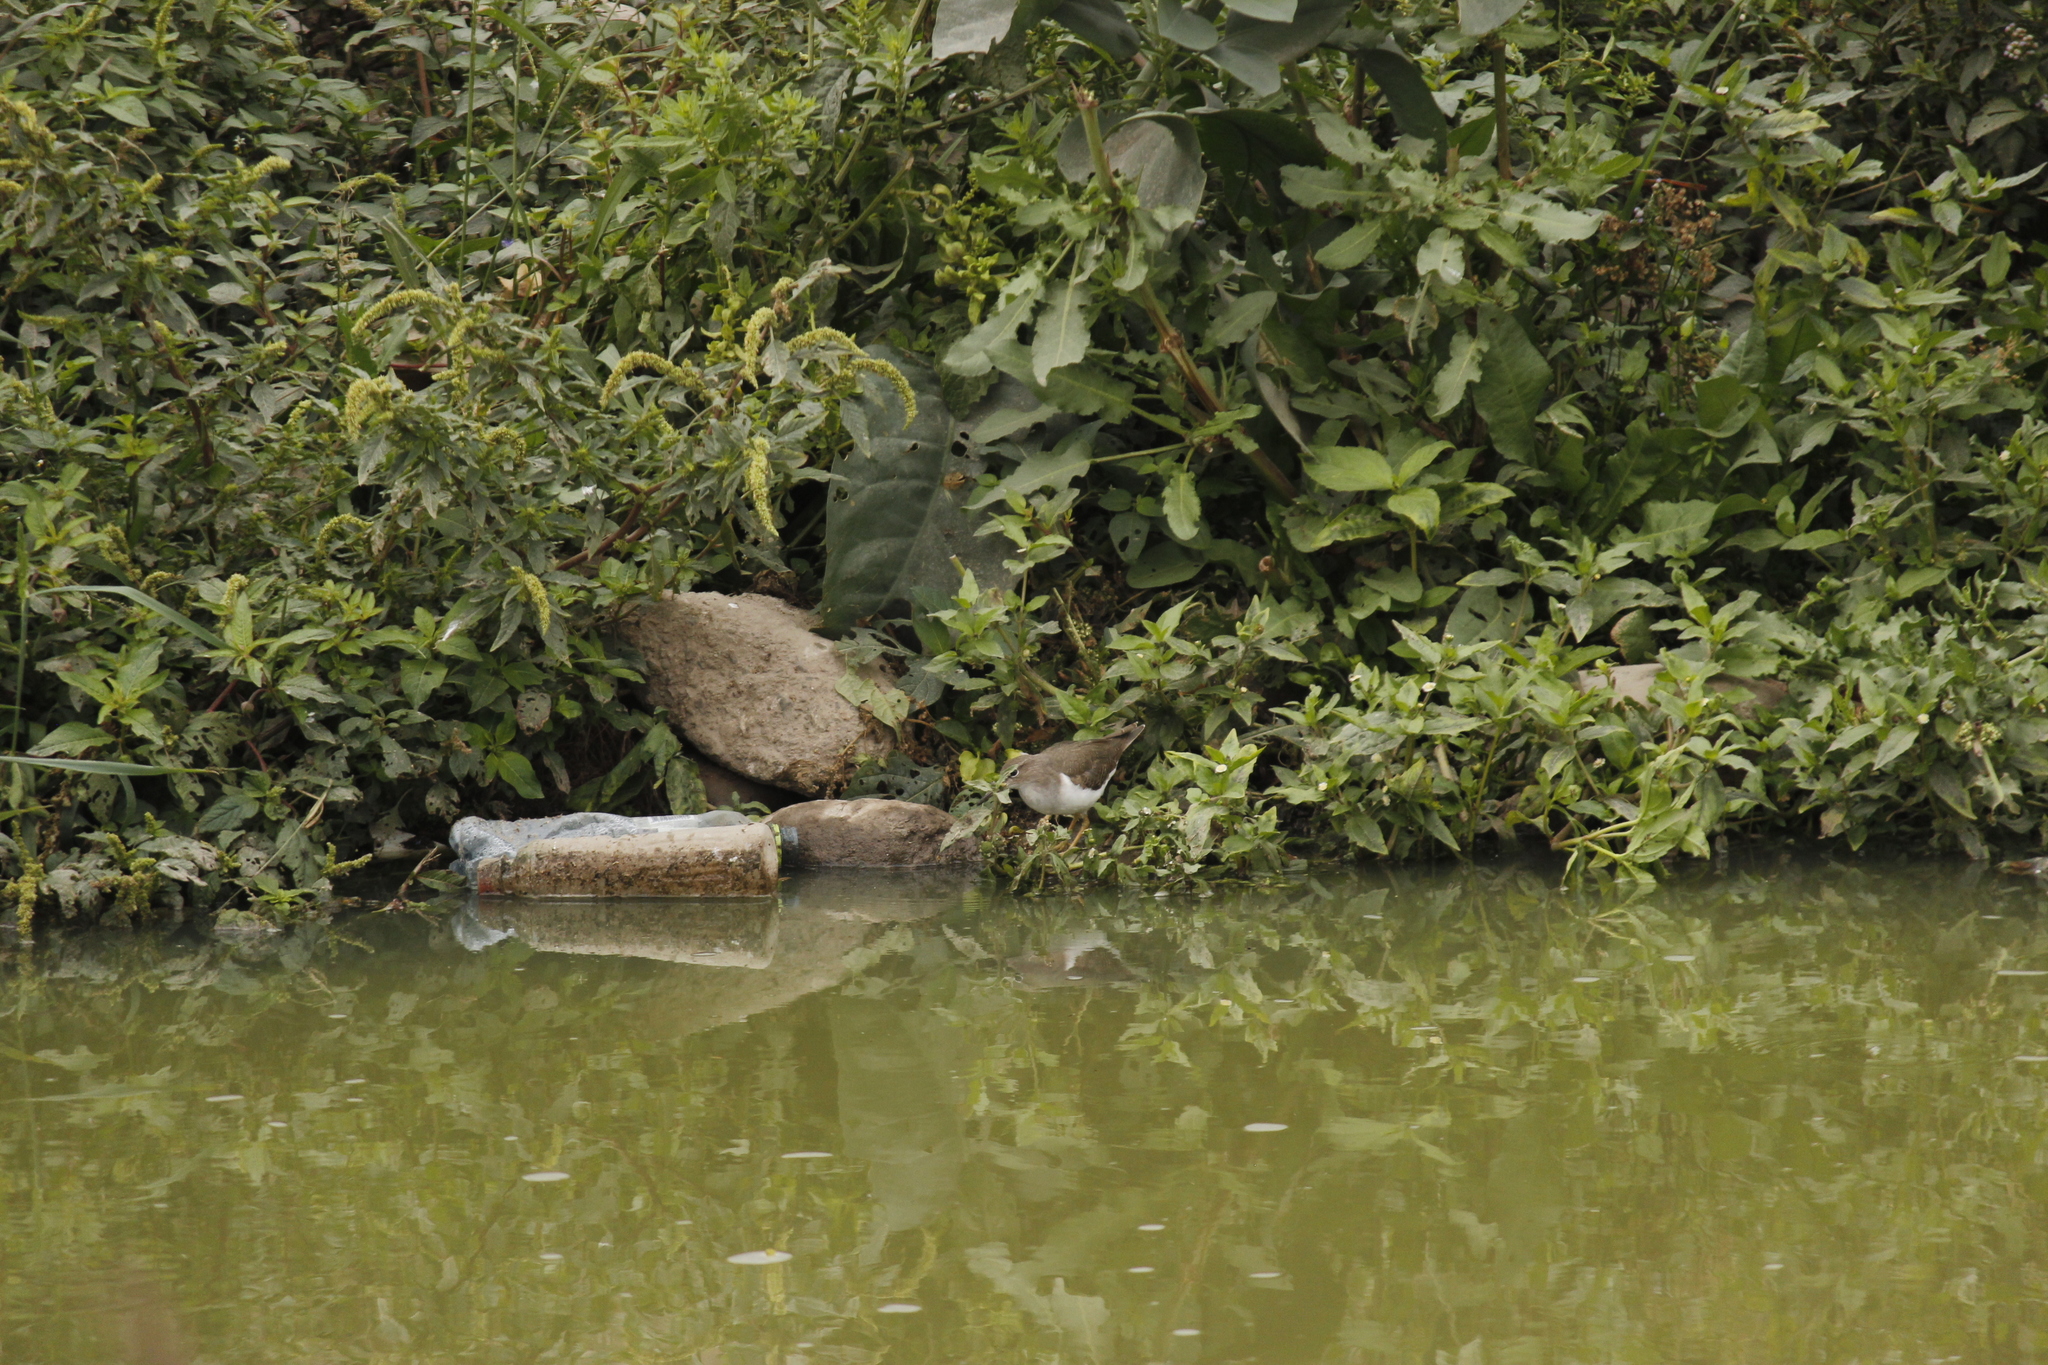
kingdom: Animalia
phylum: Chordata
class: Aves
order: Charadriiformes
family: Scolopacidae
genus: Actitis
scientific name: Actitis macularius
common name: Spotted sandpiper
